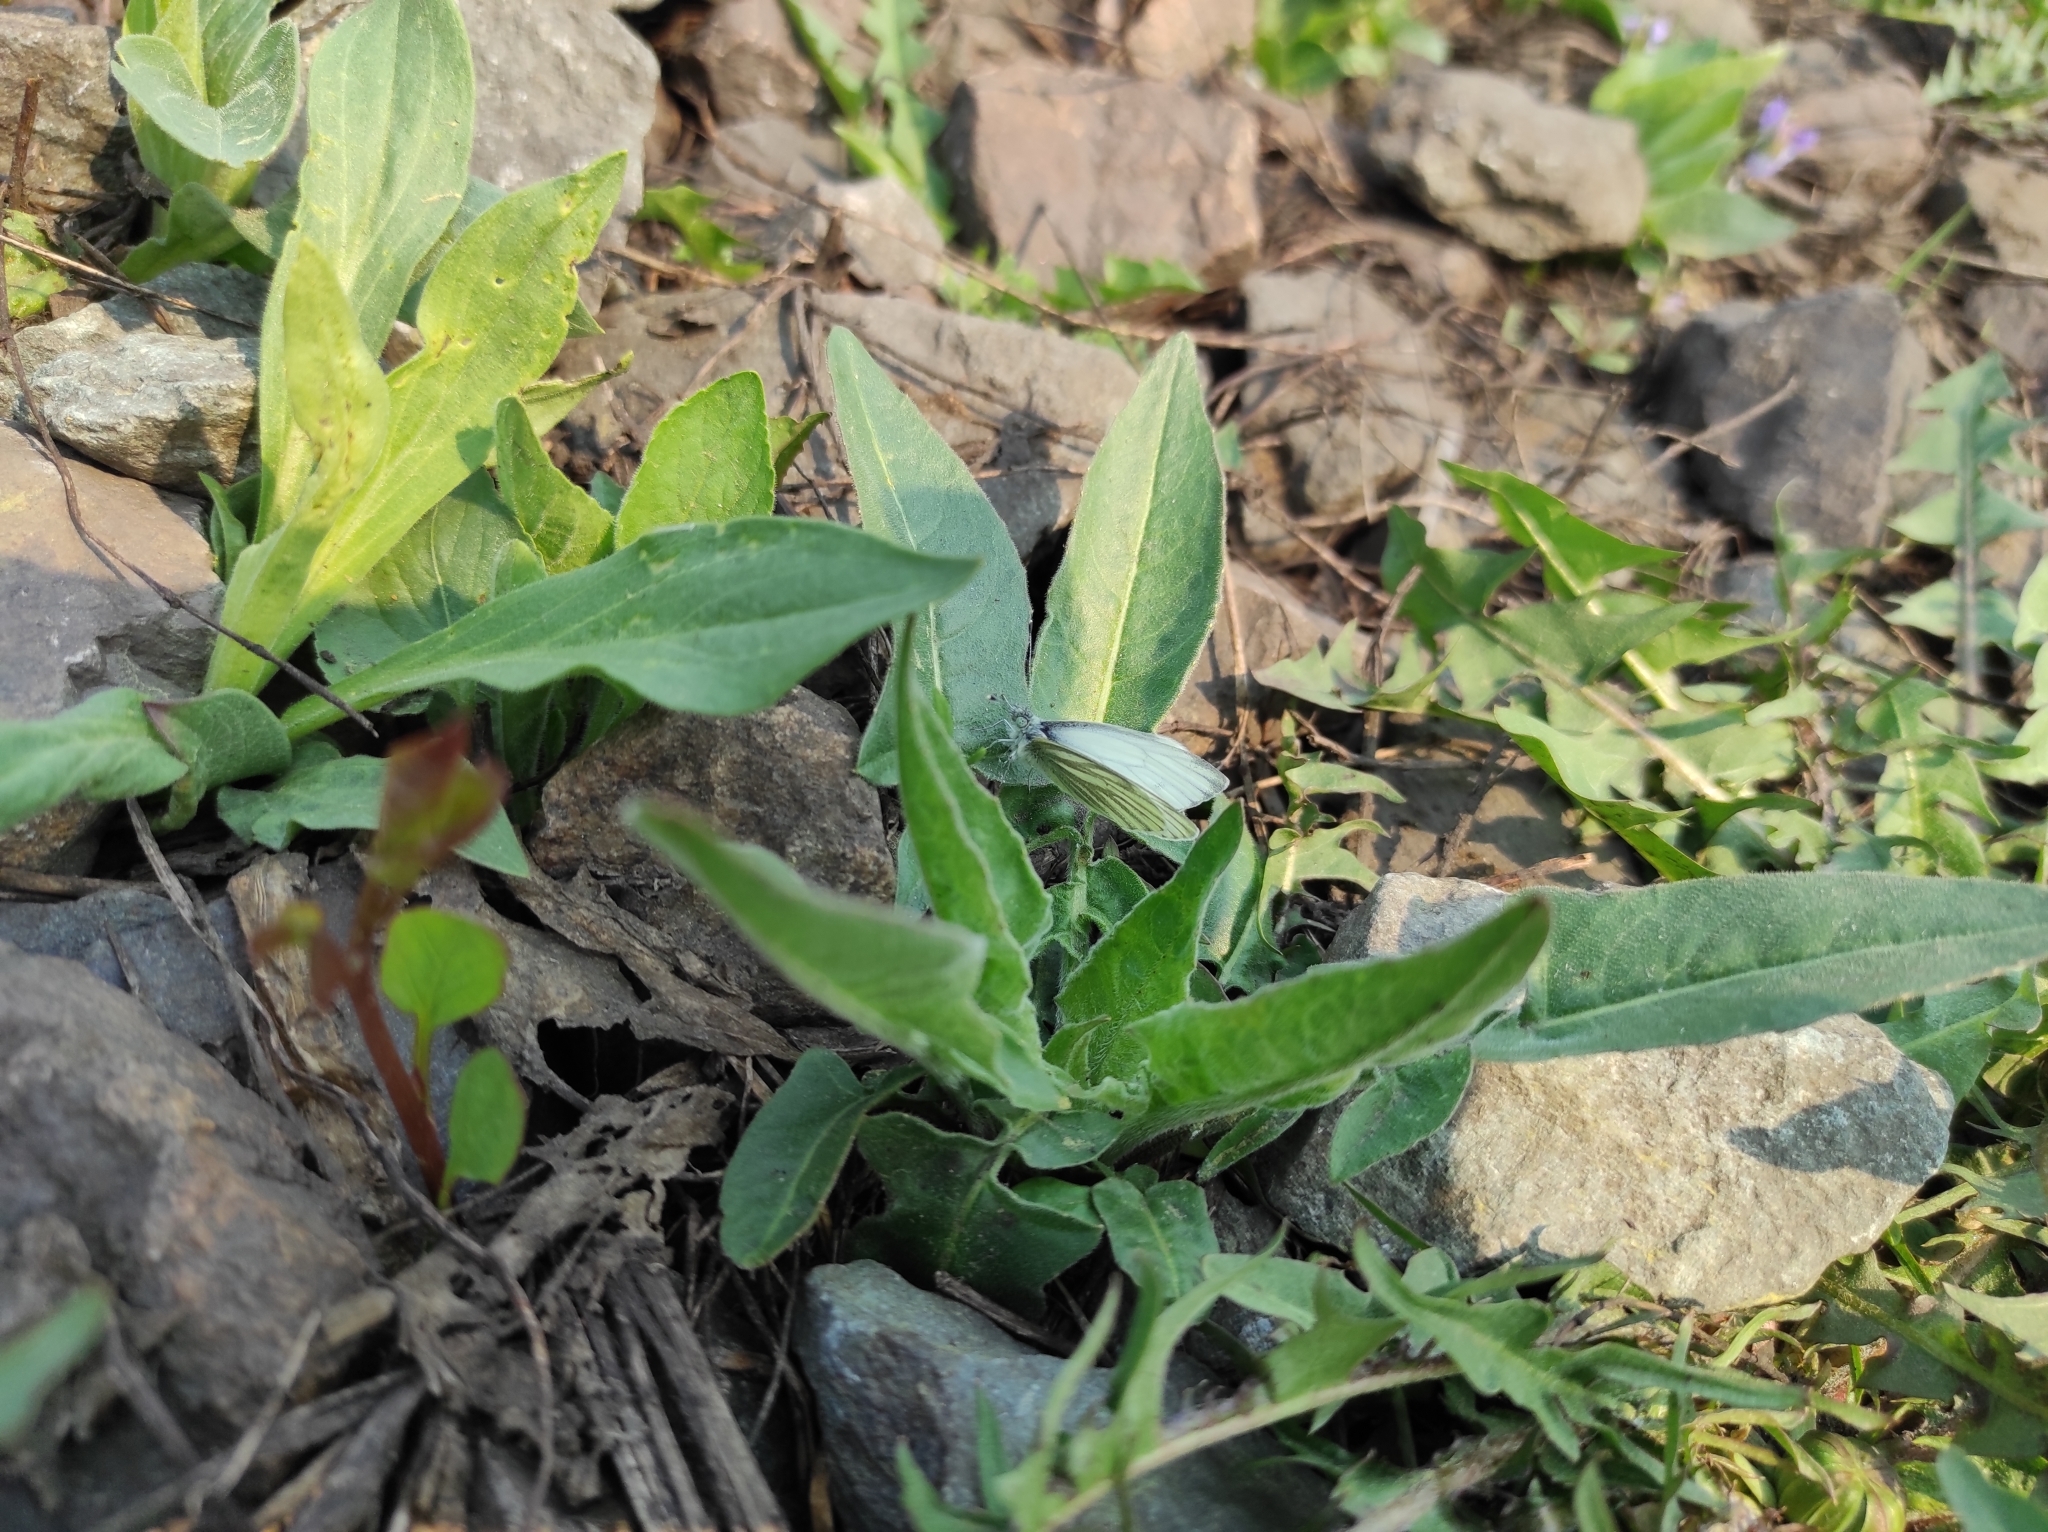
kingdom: Animalia
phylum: Arthropoda
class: Insecta
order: Lepidoptera
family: Pieridae
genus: Pieris
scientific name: Pieris napi
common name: Green-veined white
